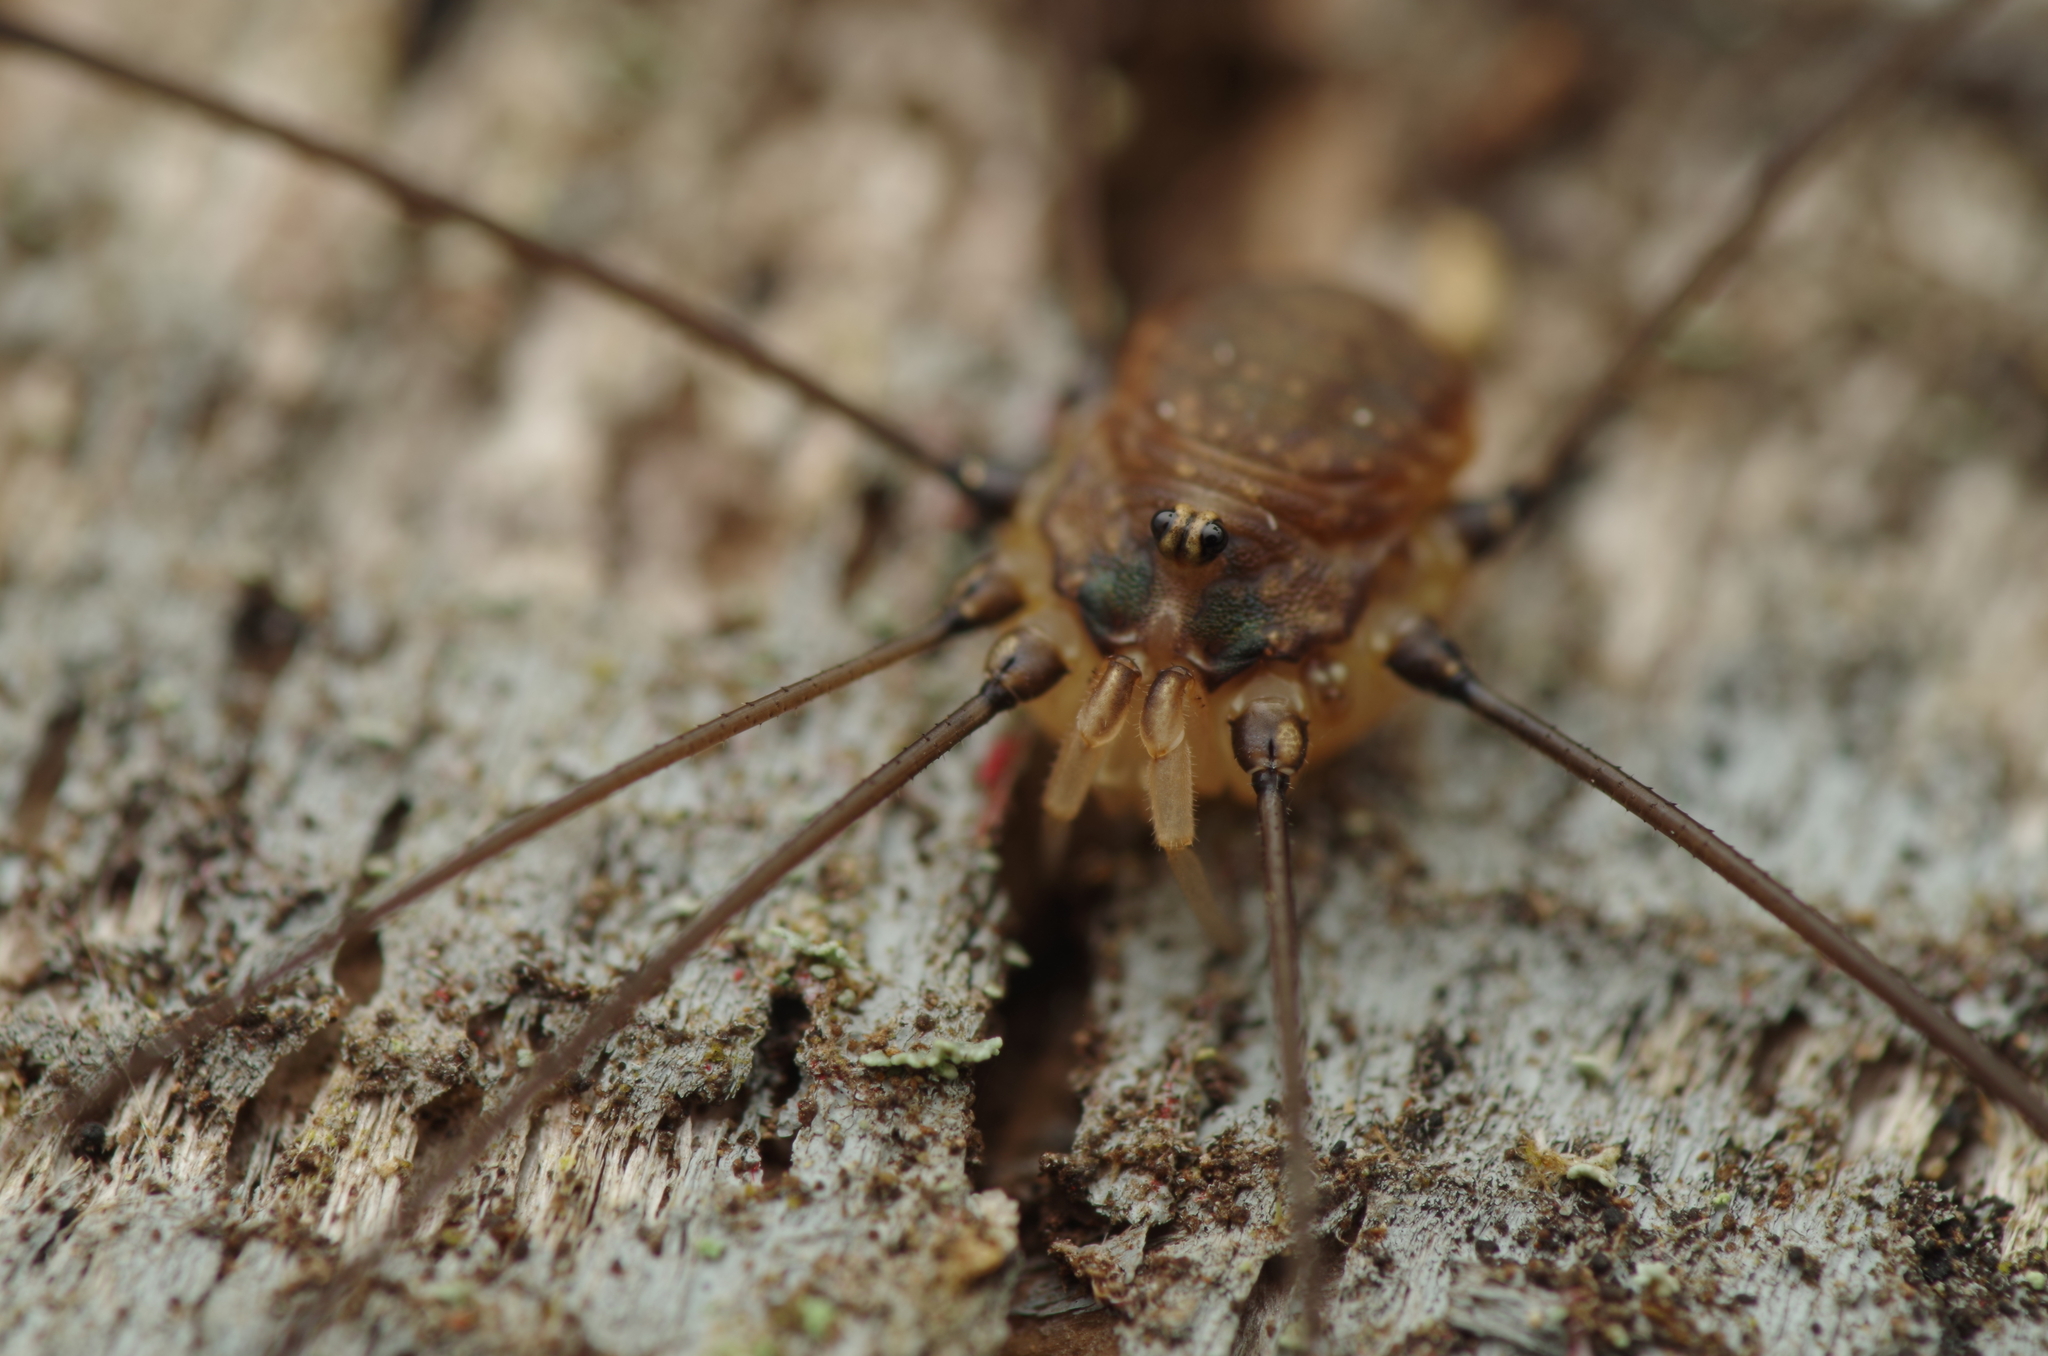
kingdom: Animalia
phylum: Arthropoda
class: Arachnida
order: Opiliones
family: Sclerosomatidae
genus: Leiobunum
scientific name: Leiobunum blackwalli
